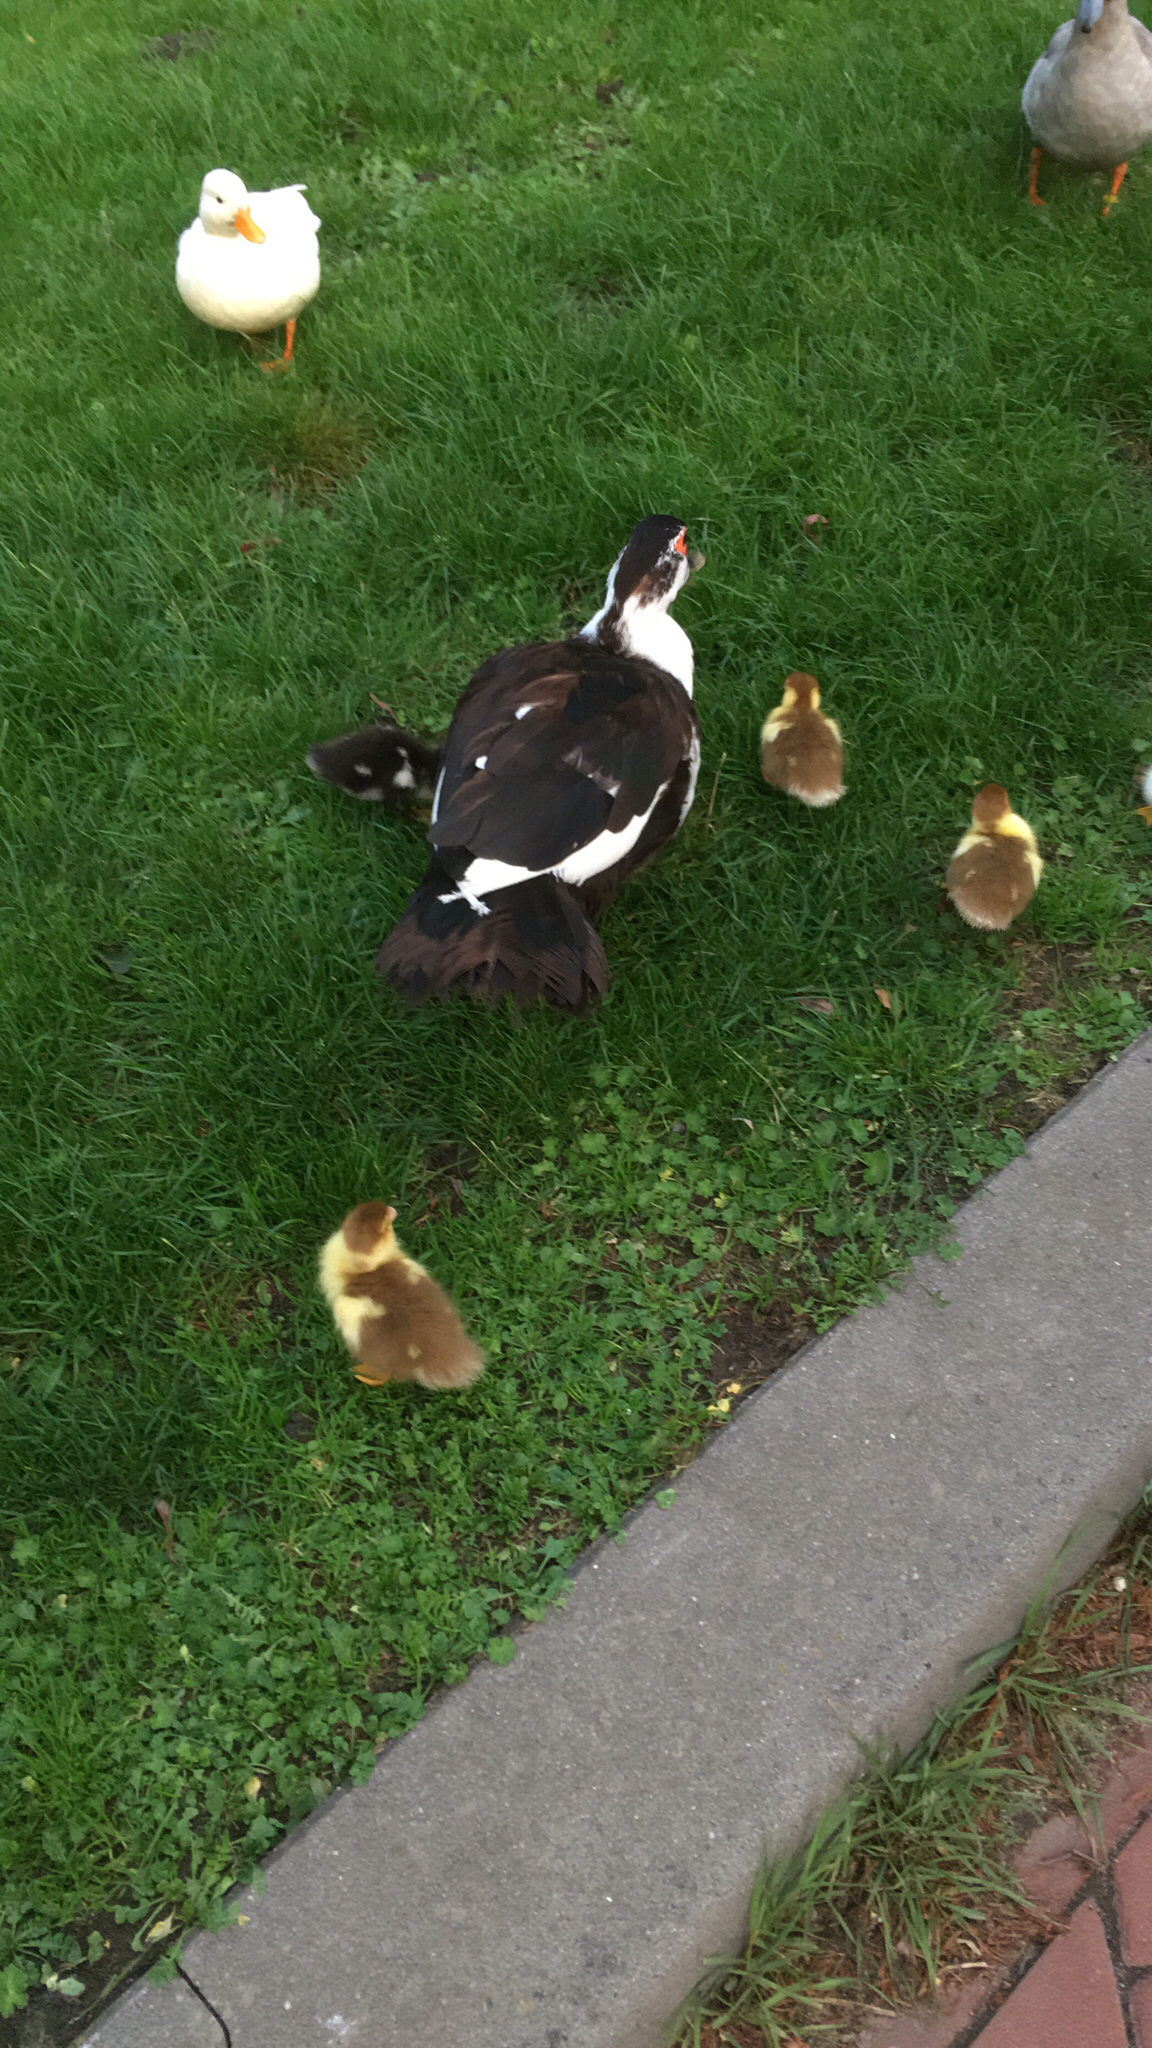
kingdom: Animalia
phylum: Chordata
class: Aves
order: Anseriformes
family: Anatidae
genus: Cairina
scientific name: Cairina moschata
